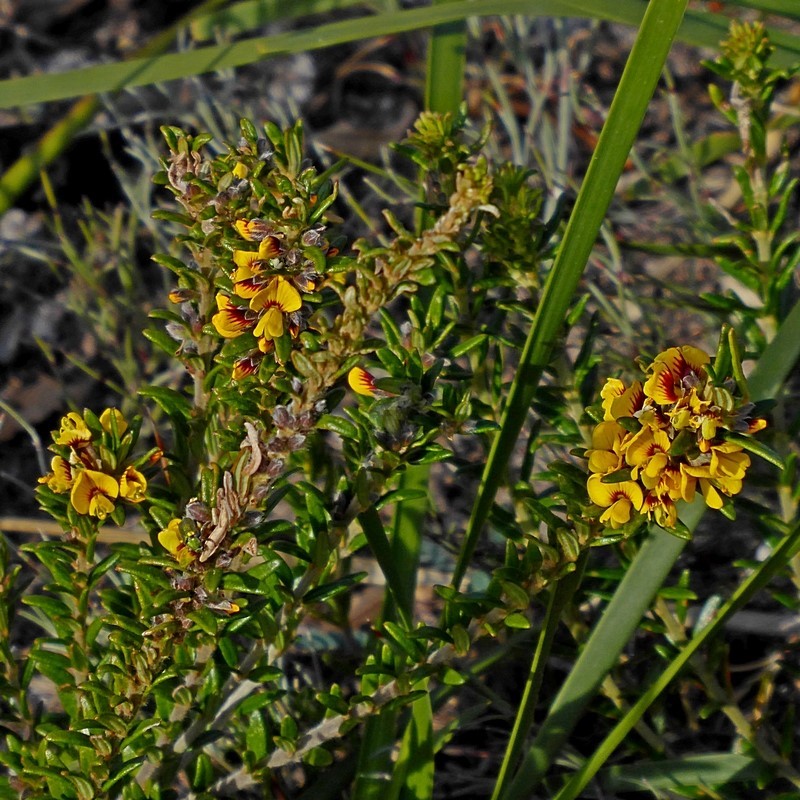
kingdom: Plantae
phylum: Tracheophyta
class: Magnoliopsida
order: Fabales
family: Fabaceae
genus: Aotus
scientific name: Aotus ericoides
